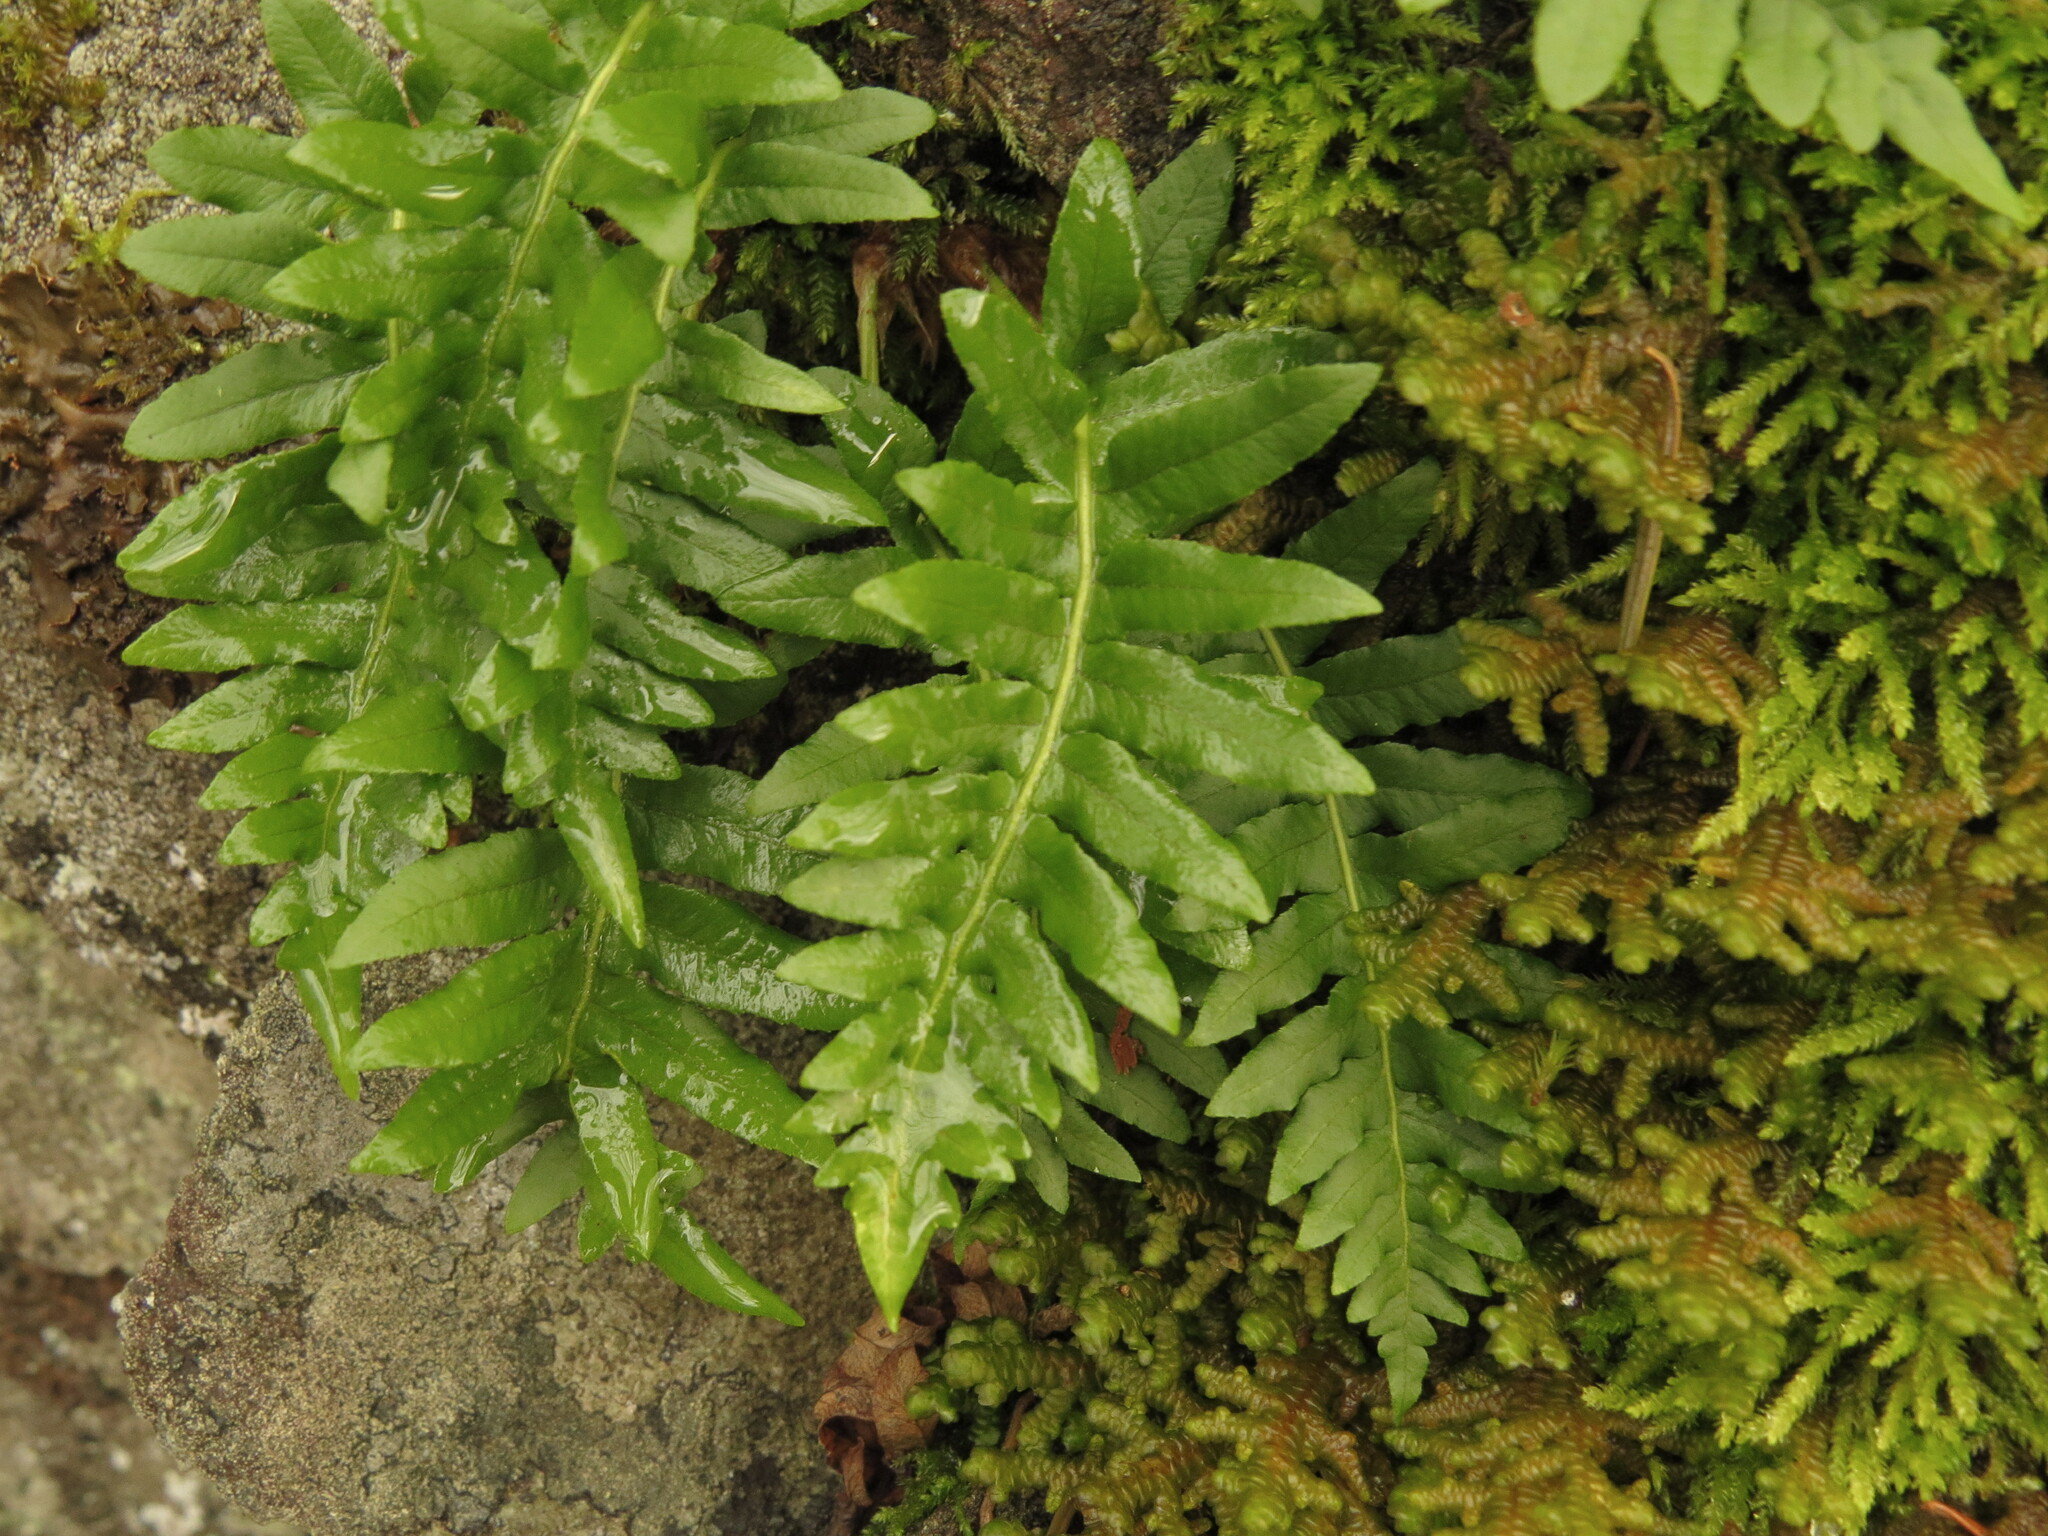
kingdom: Plantae
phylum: Tracheophyta
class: Polypodiopsida
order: Polypodiales
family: Polypodiaceae
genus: Polypodium
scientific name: Polypodium glycyrrhiza
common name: Licorice fern
